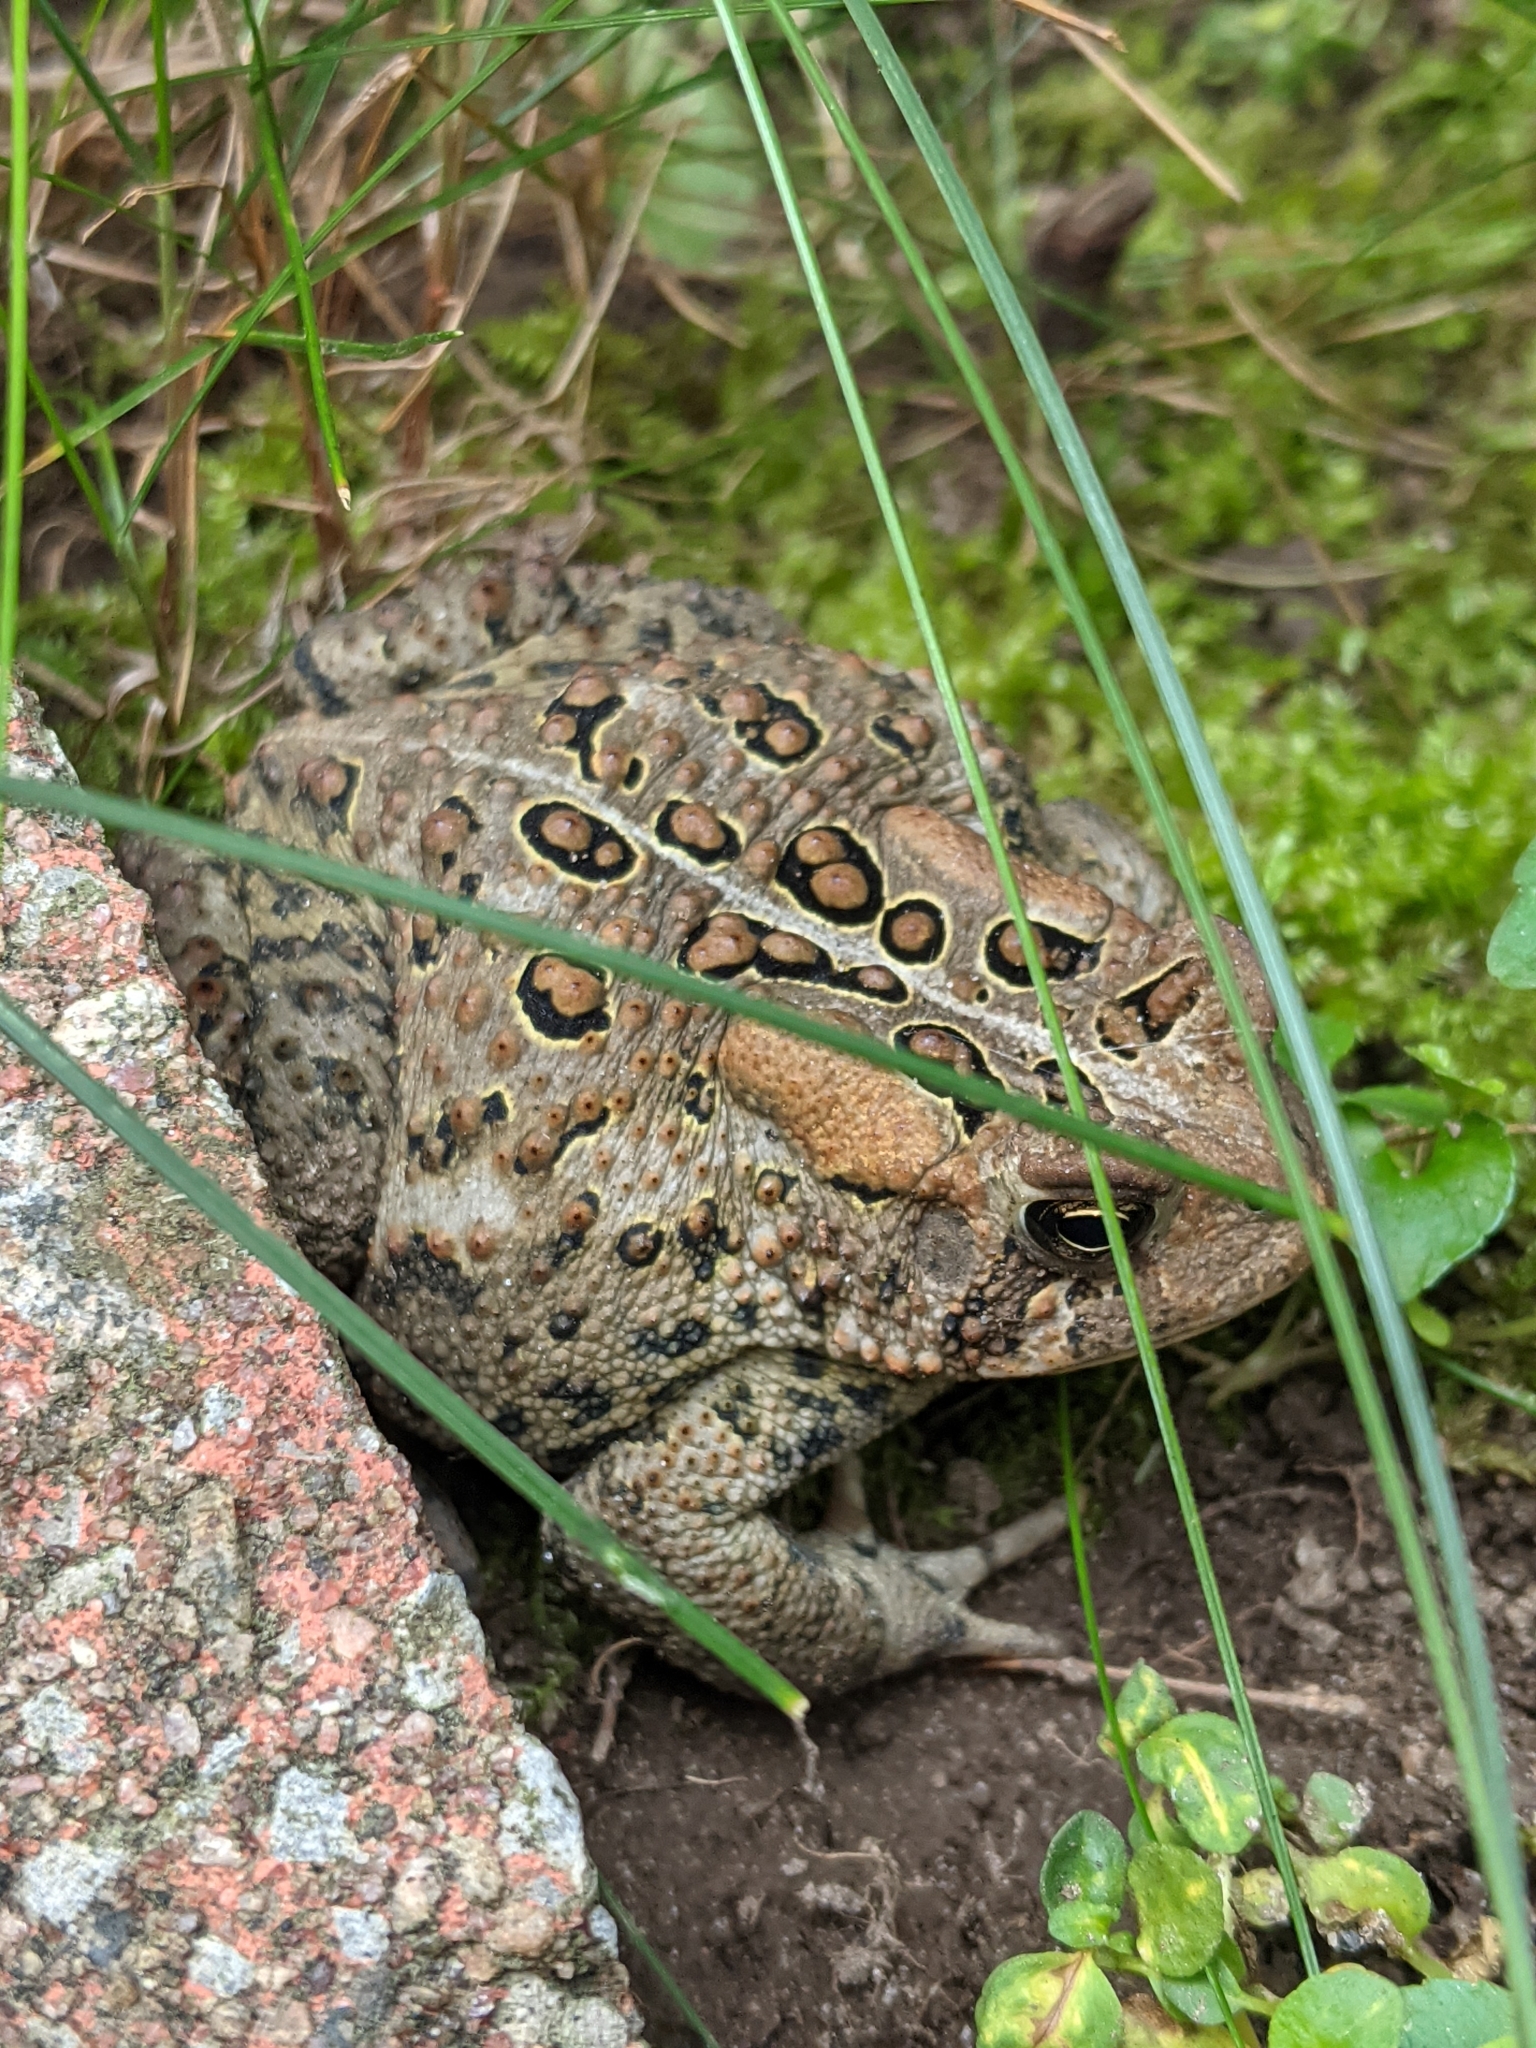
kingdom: Animalia
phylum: Chordata
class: Amphibia
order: Anura
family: Bufonidae
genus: Anaxyrus
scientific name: Anaxyrus americanus
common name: American toad
